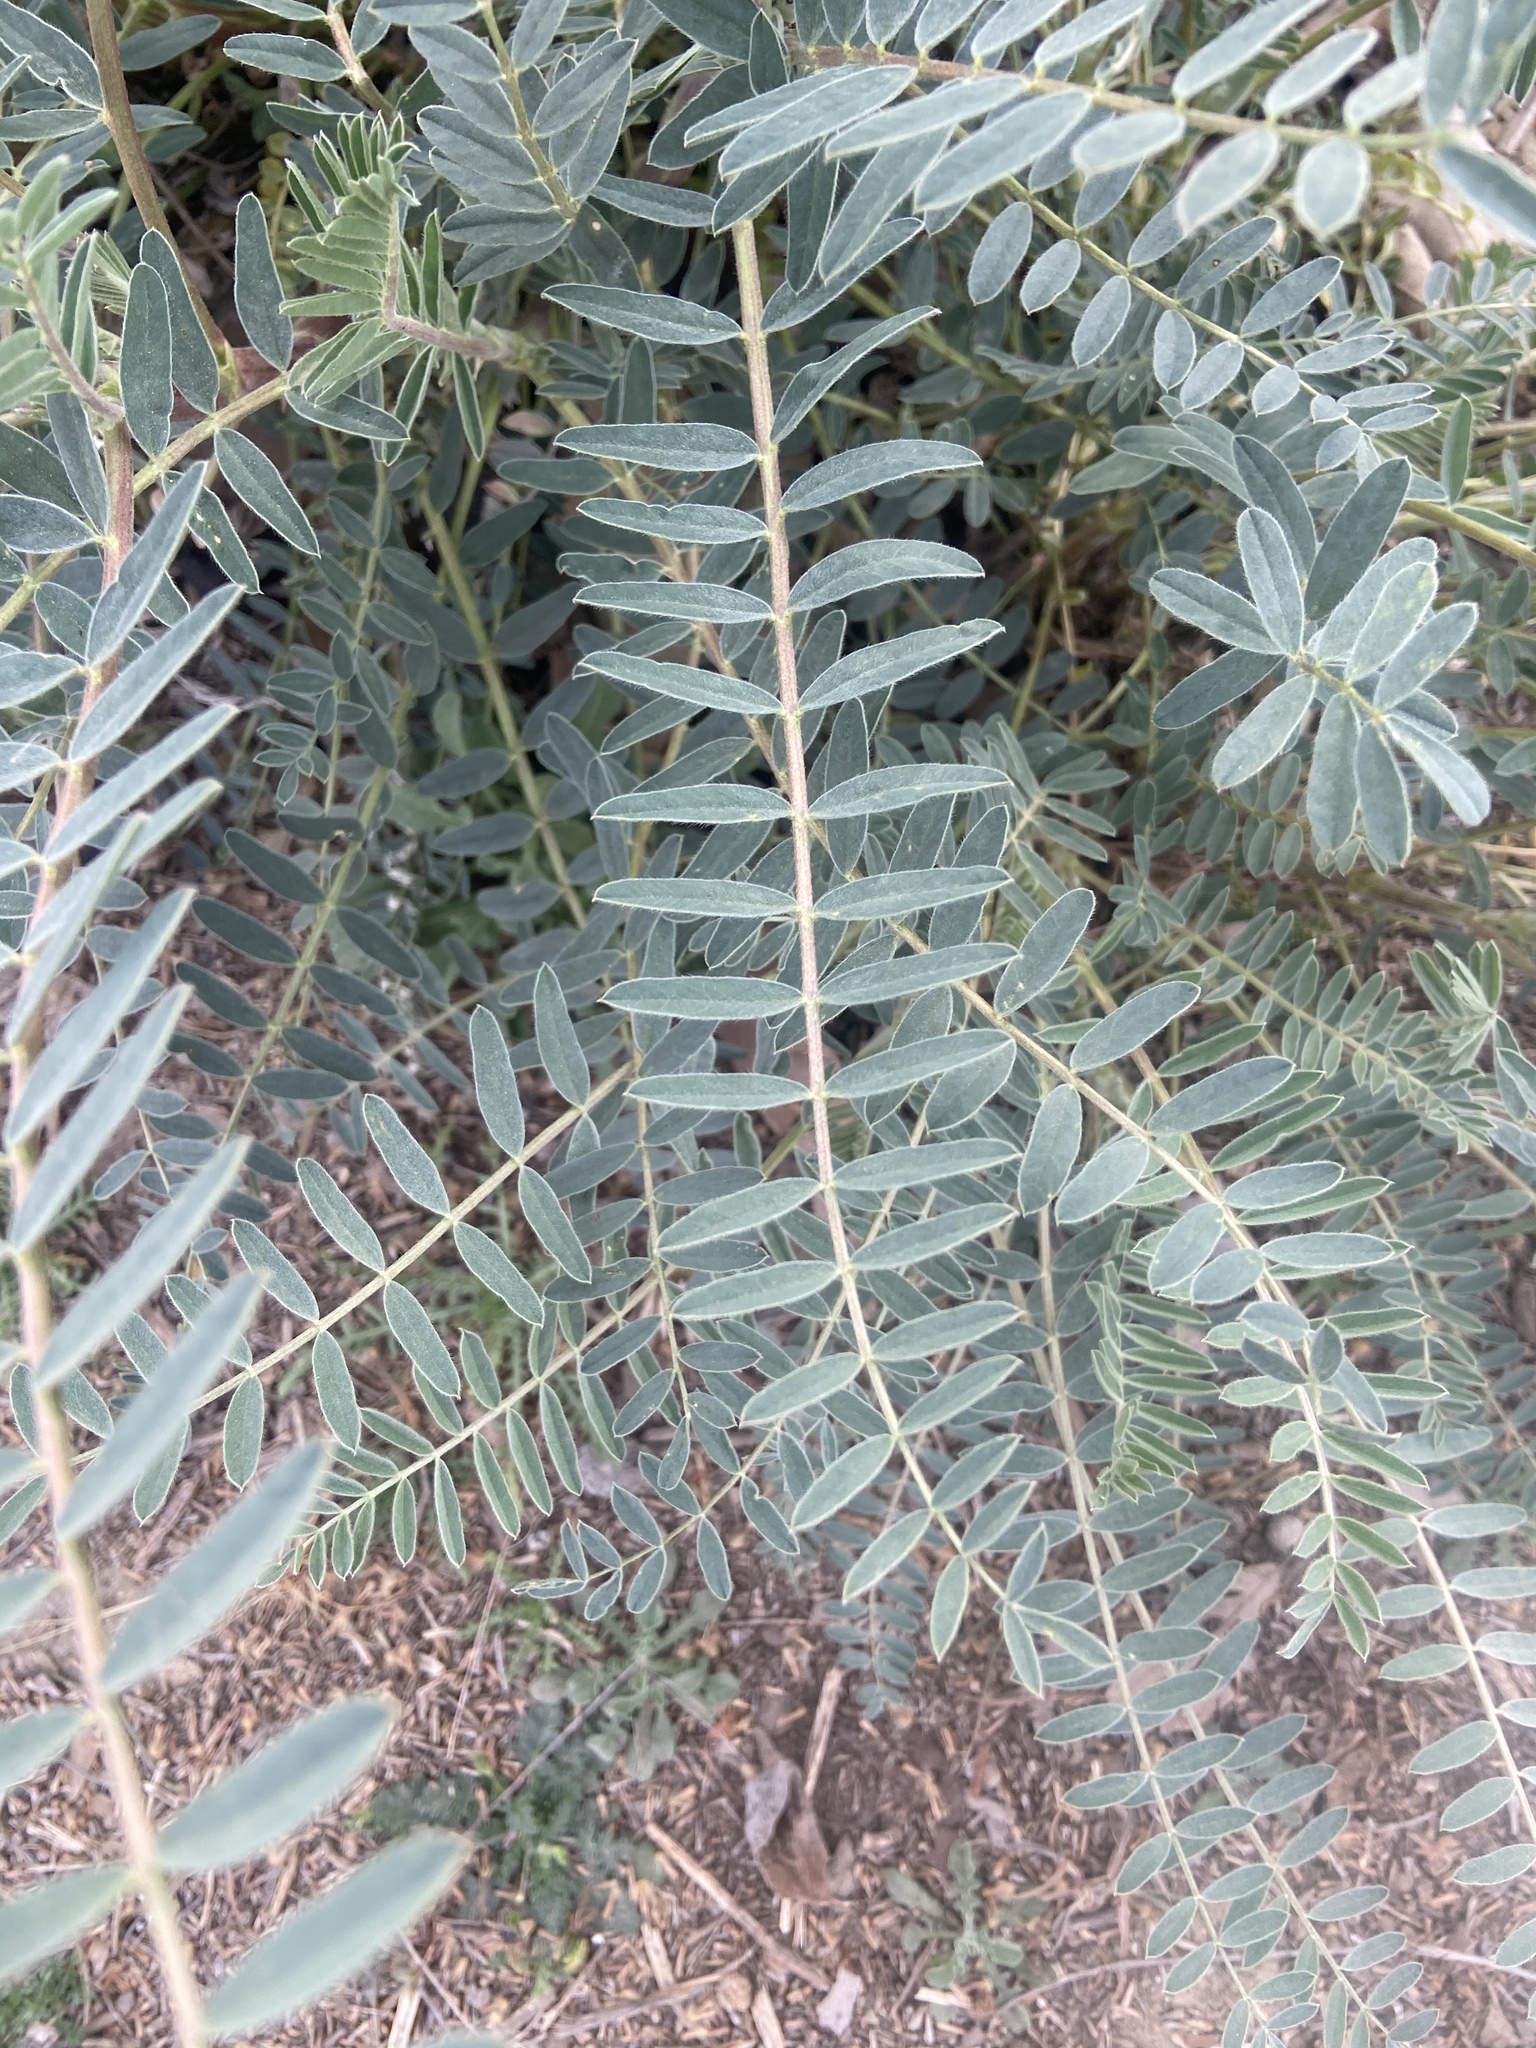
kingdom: Plantae
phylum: Tracheophyta
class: Magnoliopsida
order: Fabales
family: Fabaceae
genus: Sesbania
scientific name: Sesbania punicea
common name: Rattlebox
